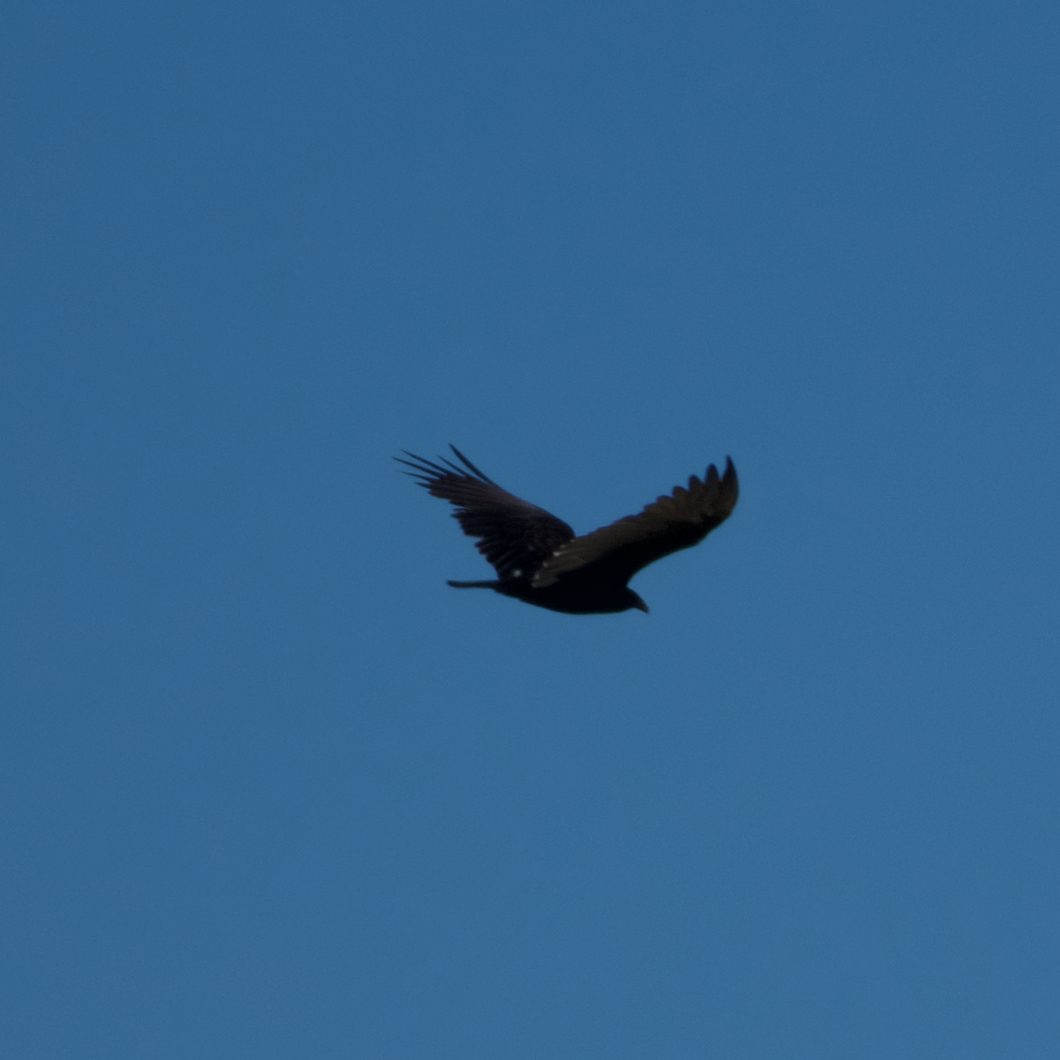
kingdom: Animalia
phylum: Chordata
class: Aves
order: Accipitriformes
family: Cathartidae
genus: Cathartes
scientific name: Cathartes aura
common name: Turkey vulture
